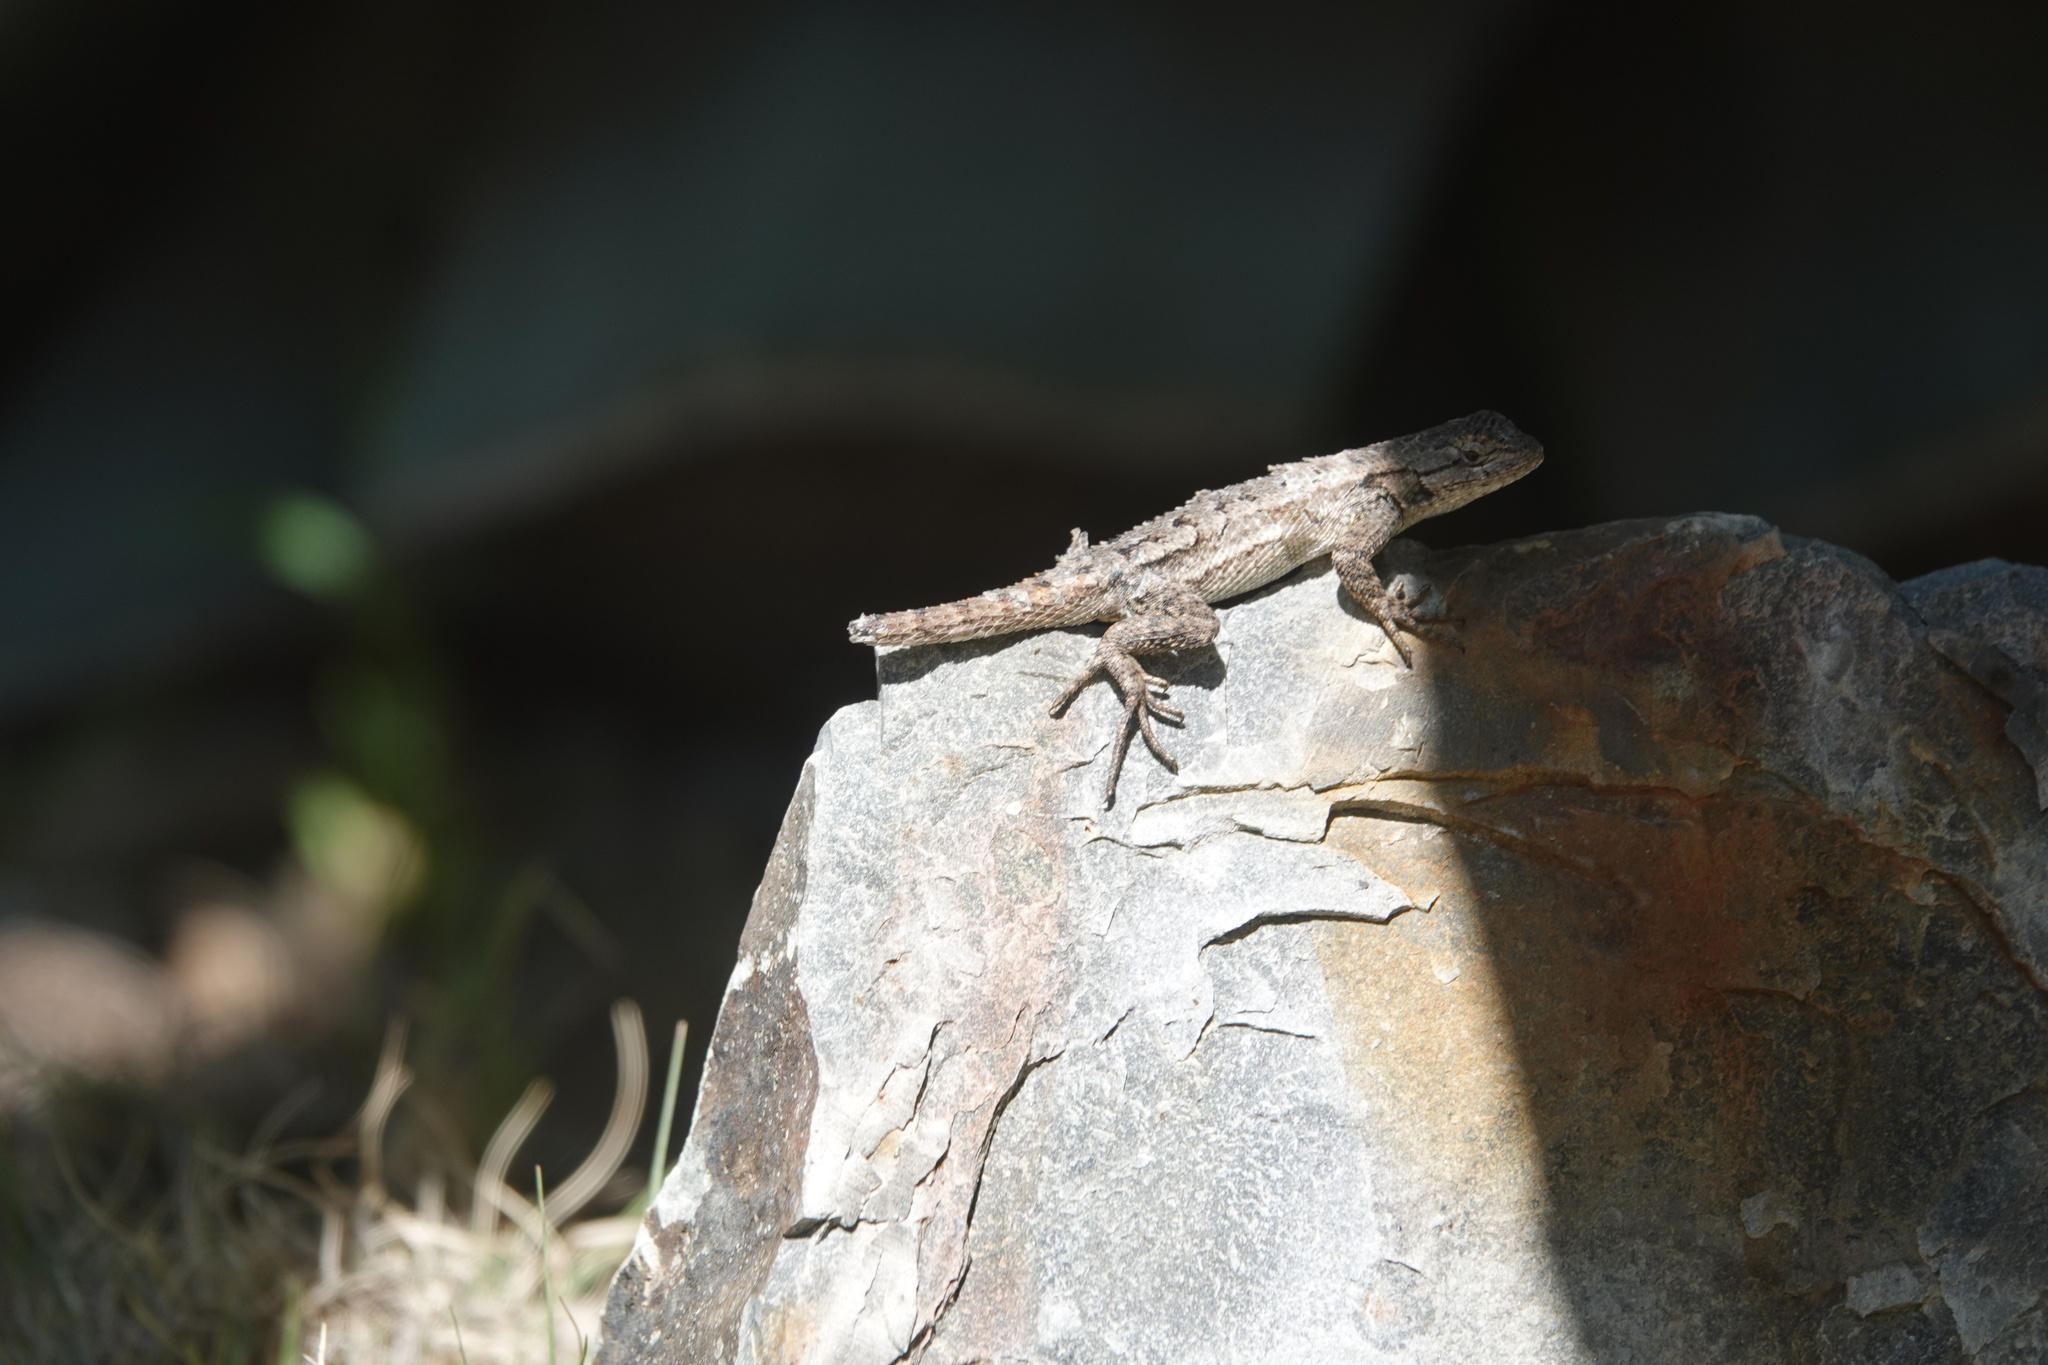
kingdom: Animalia
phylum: Chordata
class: Squamata
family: Phrynosomatidae
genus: Sceloporus
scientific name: Sceloporus occidentalis
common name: Western fence lizard
